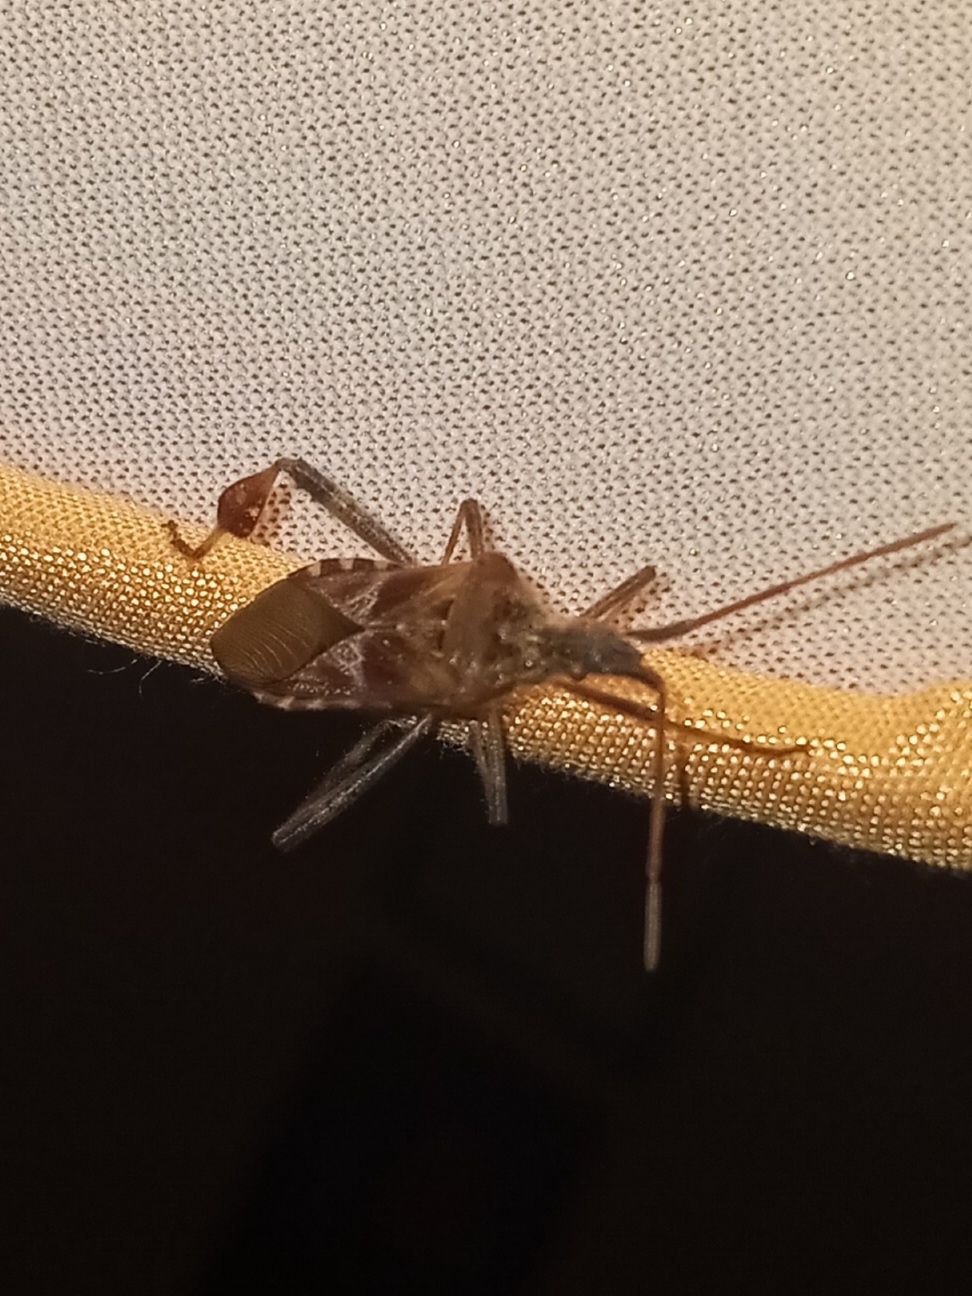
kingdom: Animalia
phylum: Arthropoda
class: Insecta
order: Hemiptera
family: Coreidae
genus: Leptoglossus
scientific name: Leptoglossus occidentalis
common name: Western conifer-seed bug
